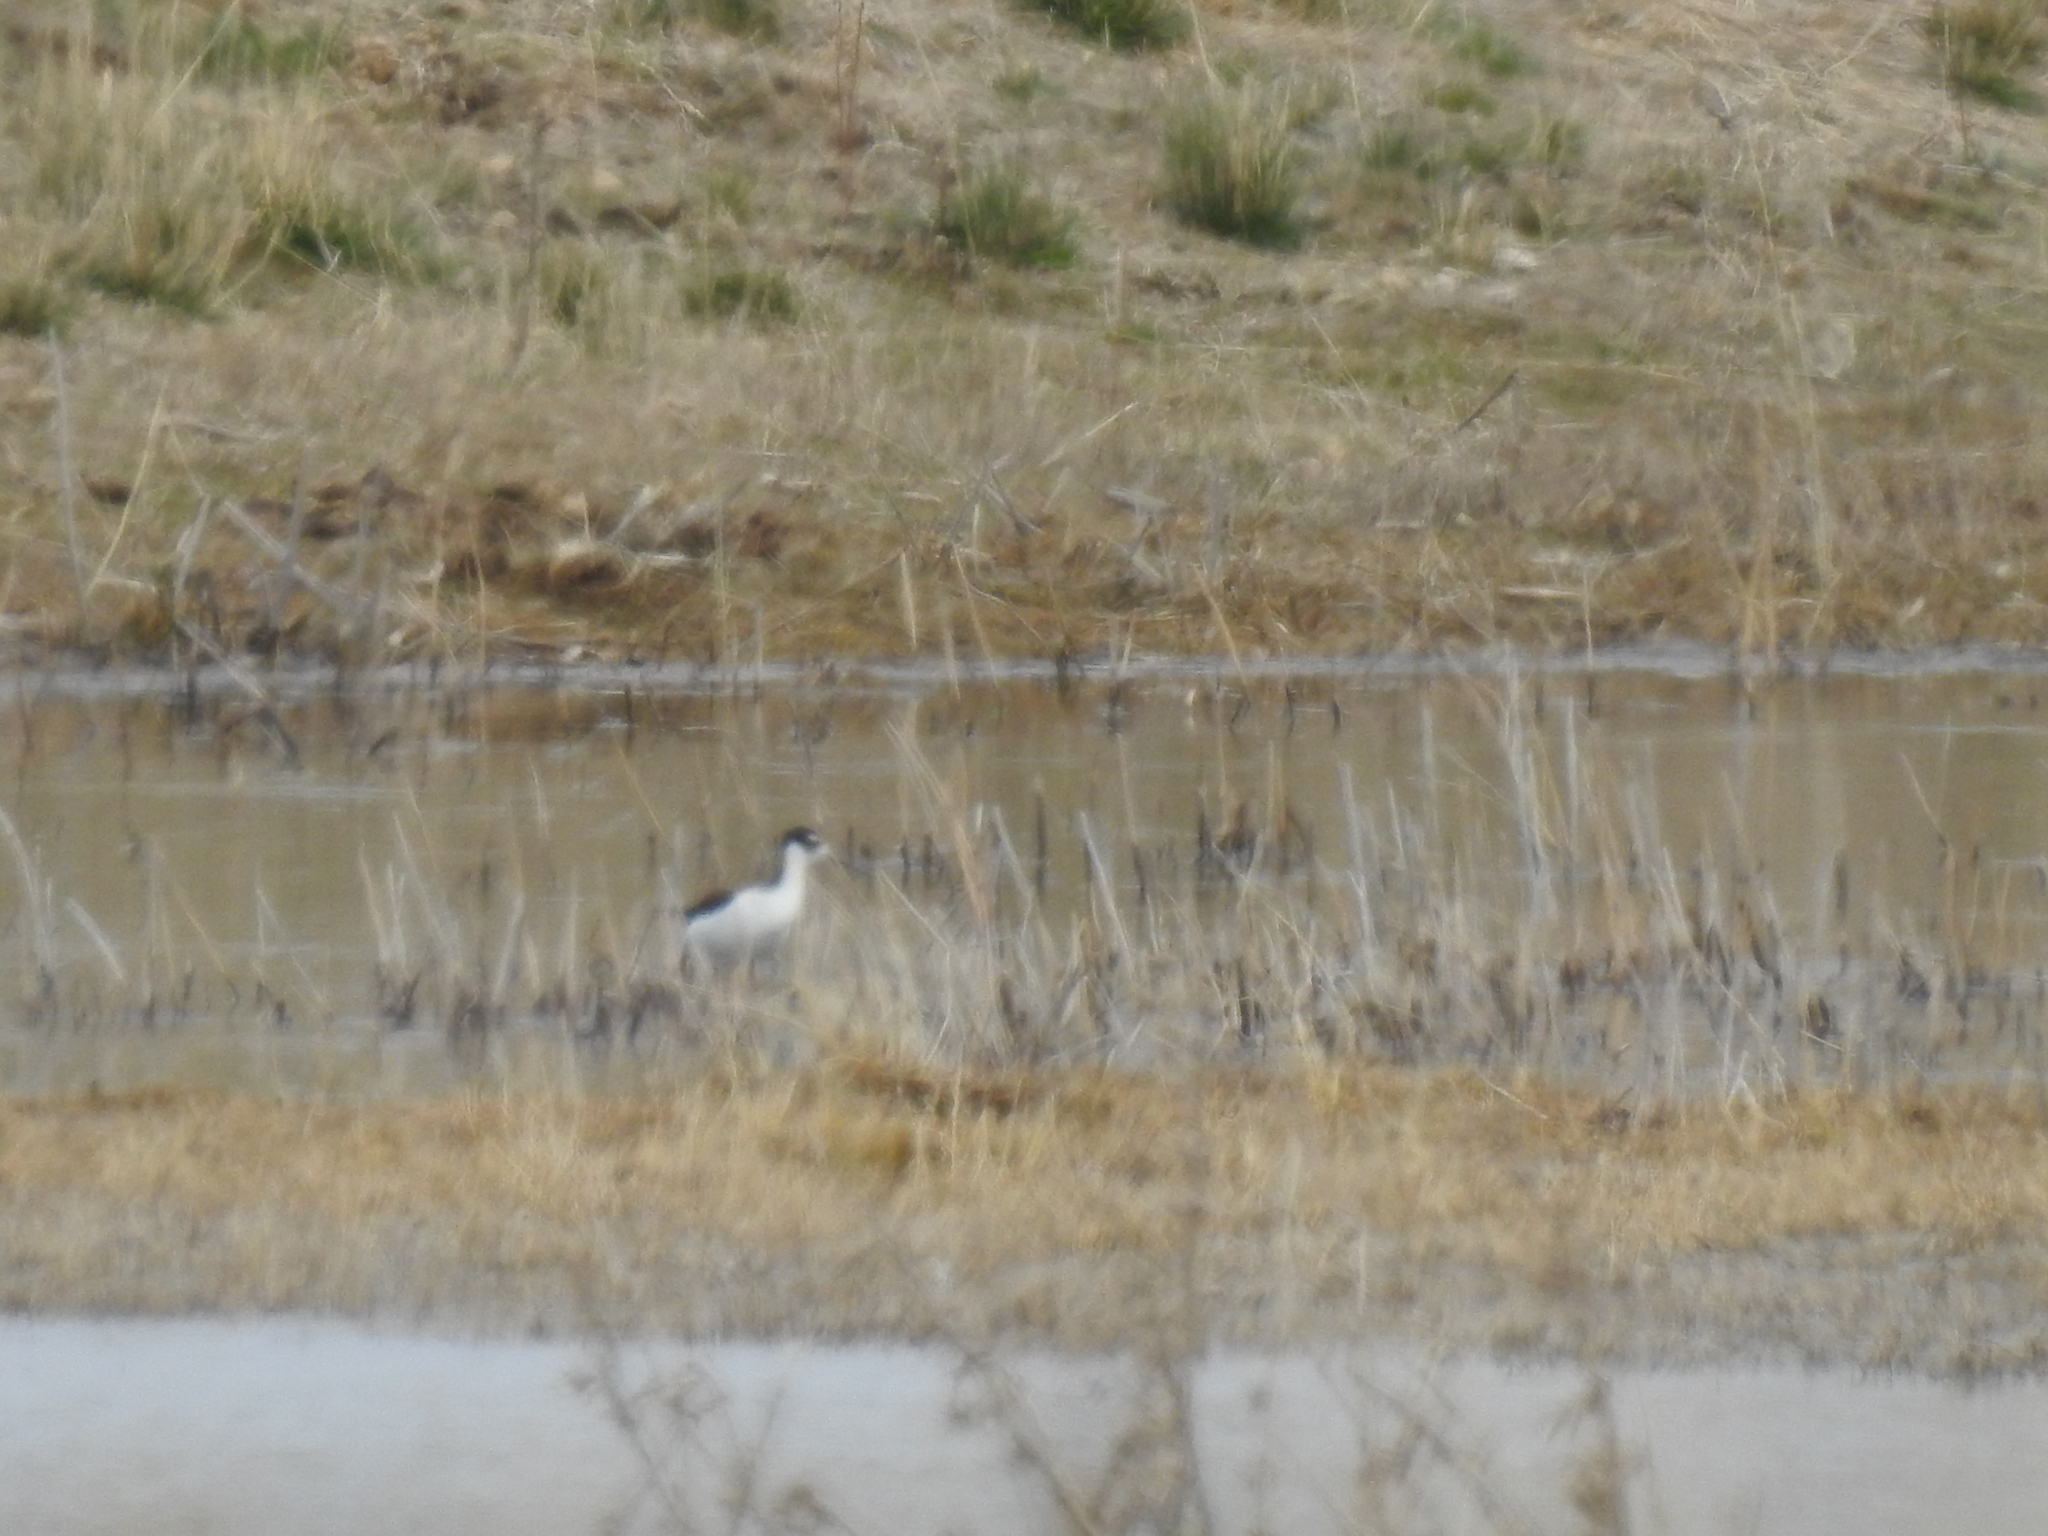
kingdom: Animalia
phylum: Chordata
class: Aves
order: Charadriiformes
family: Recurvirostridae
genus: Himantopus
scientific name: Himantopus mexicanus
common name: Black-necked stilt
